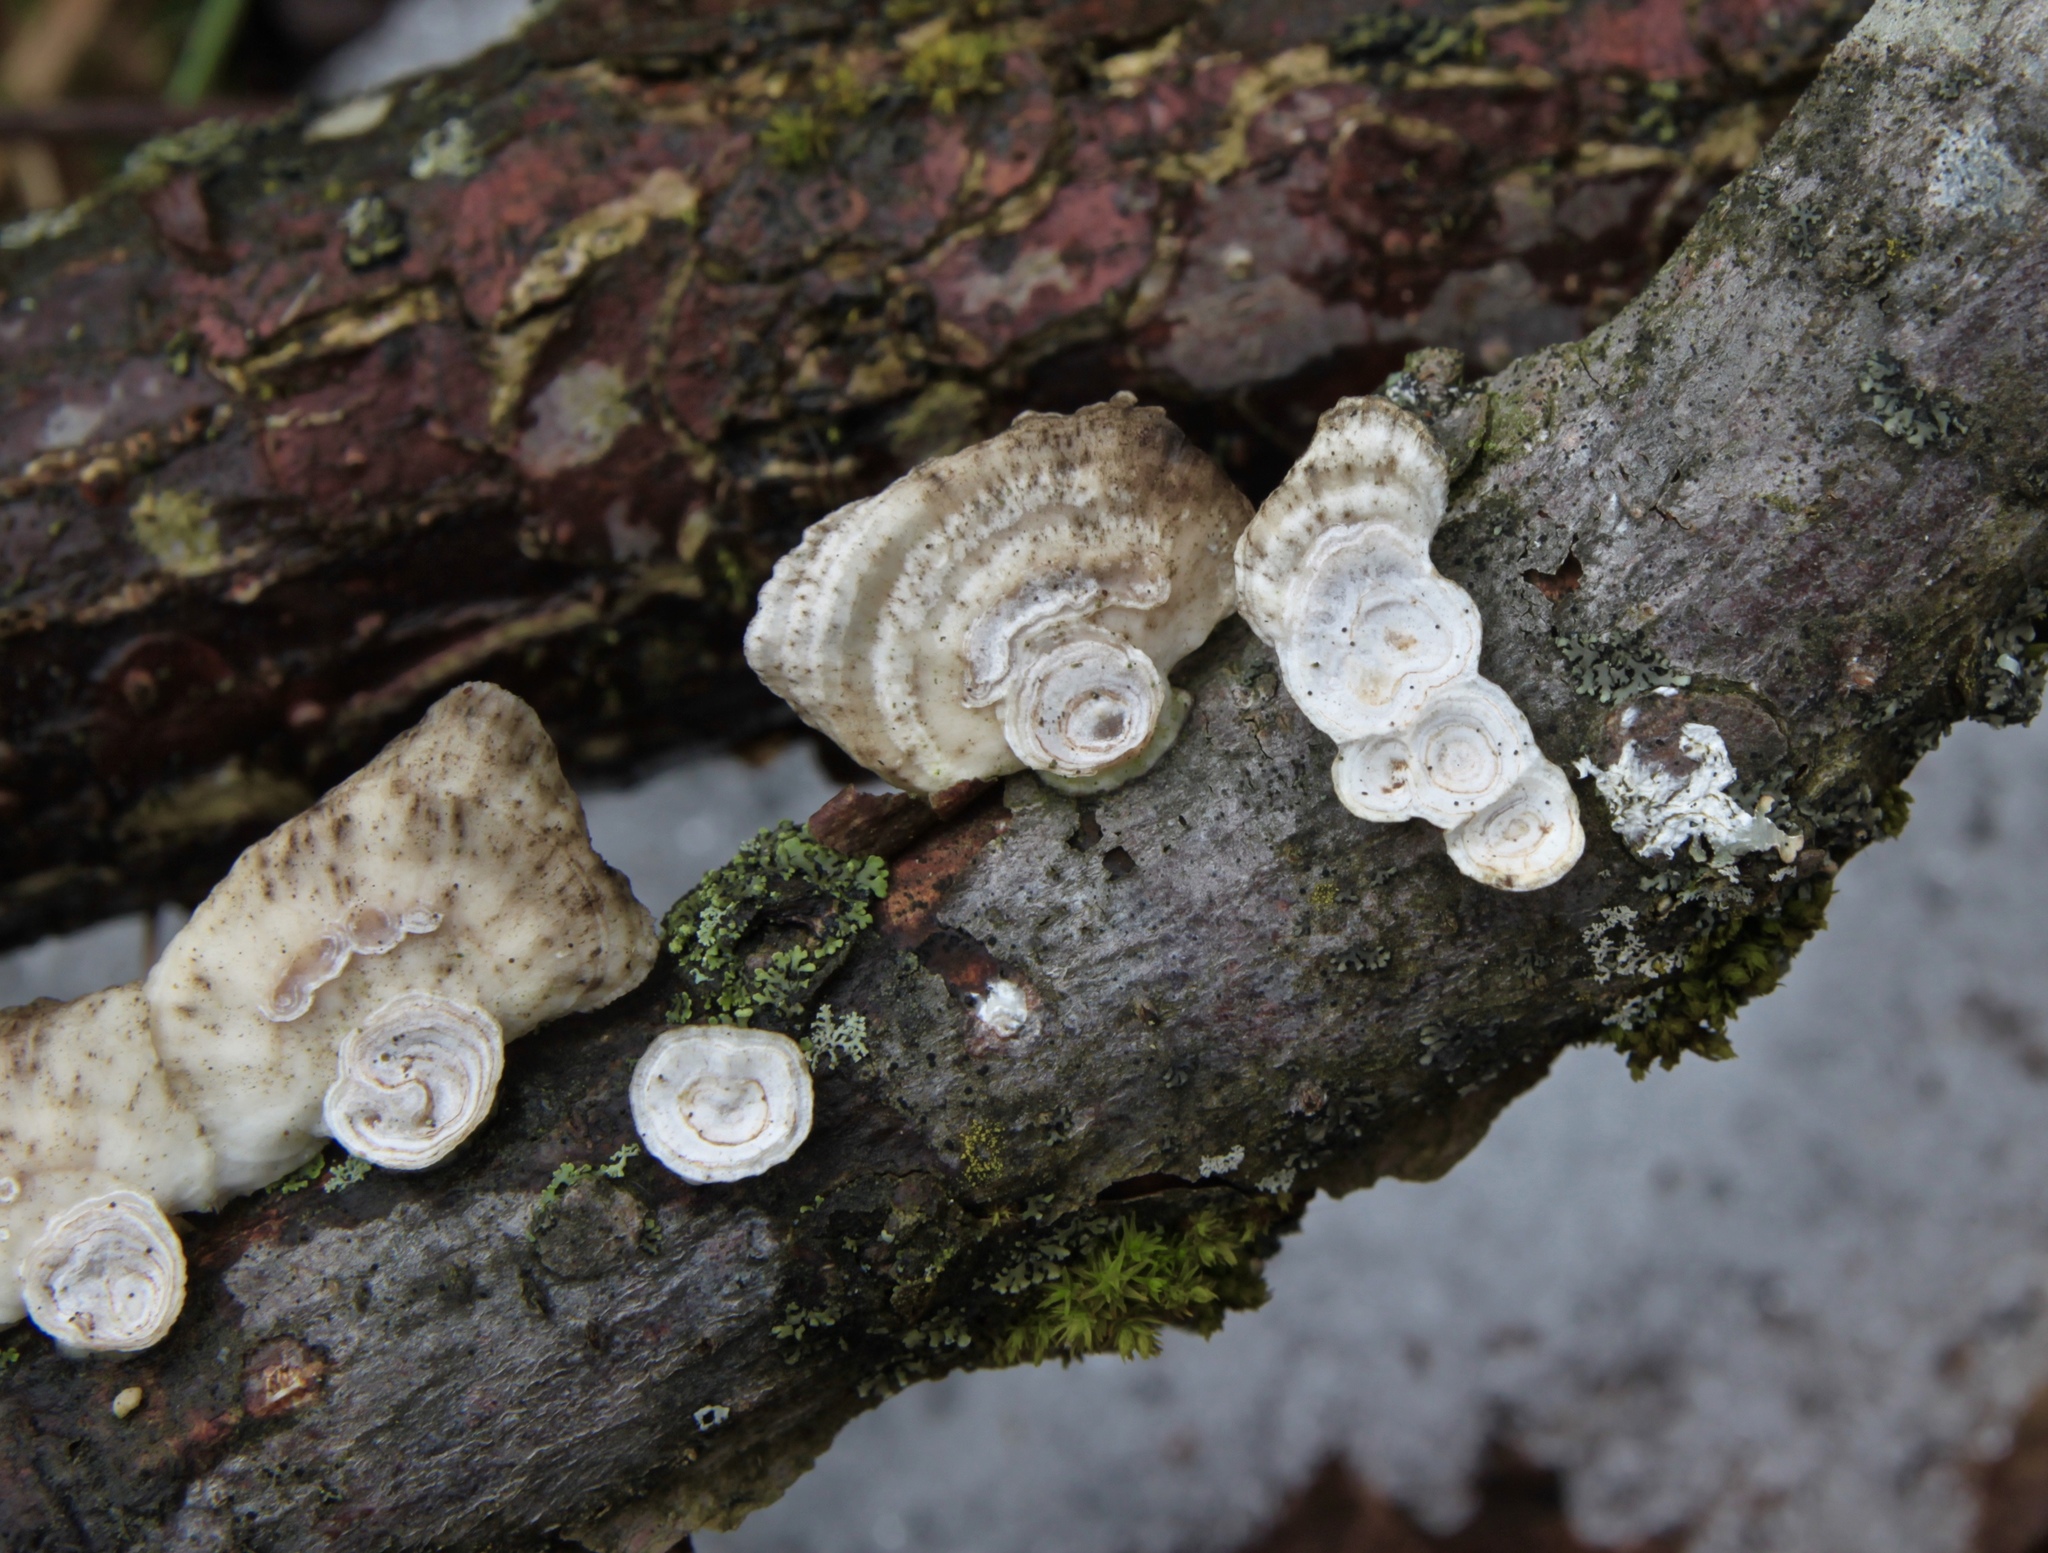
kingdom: Fungi
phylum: Basidiomycota
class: Agaricomycetes
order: Polyporales
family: Polyporaceae
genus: Poronidulus
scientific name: Poronidulus conchifer
